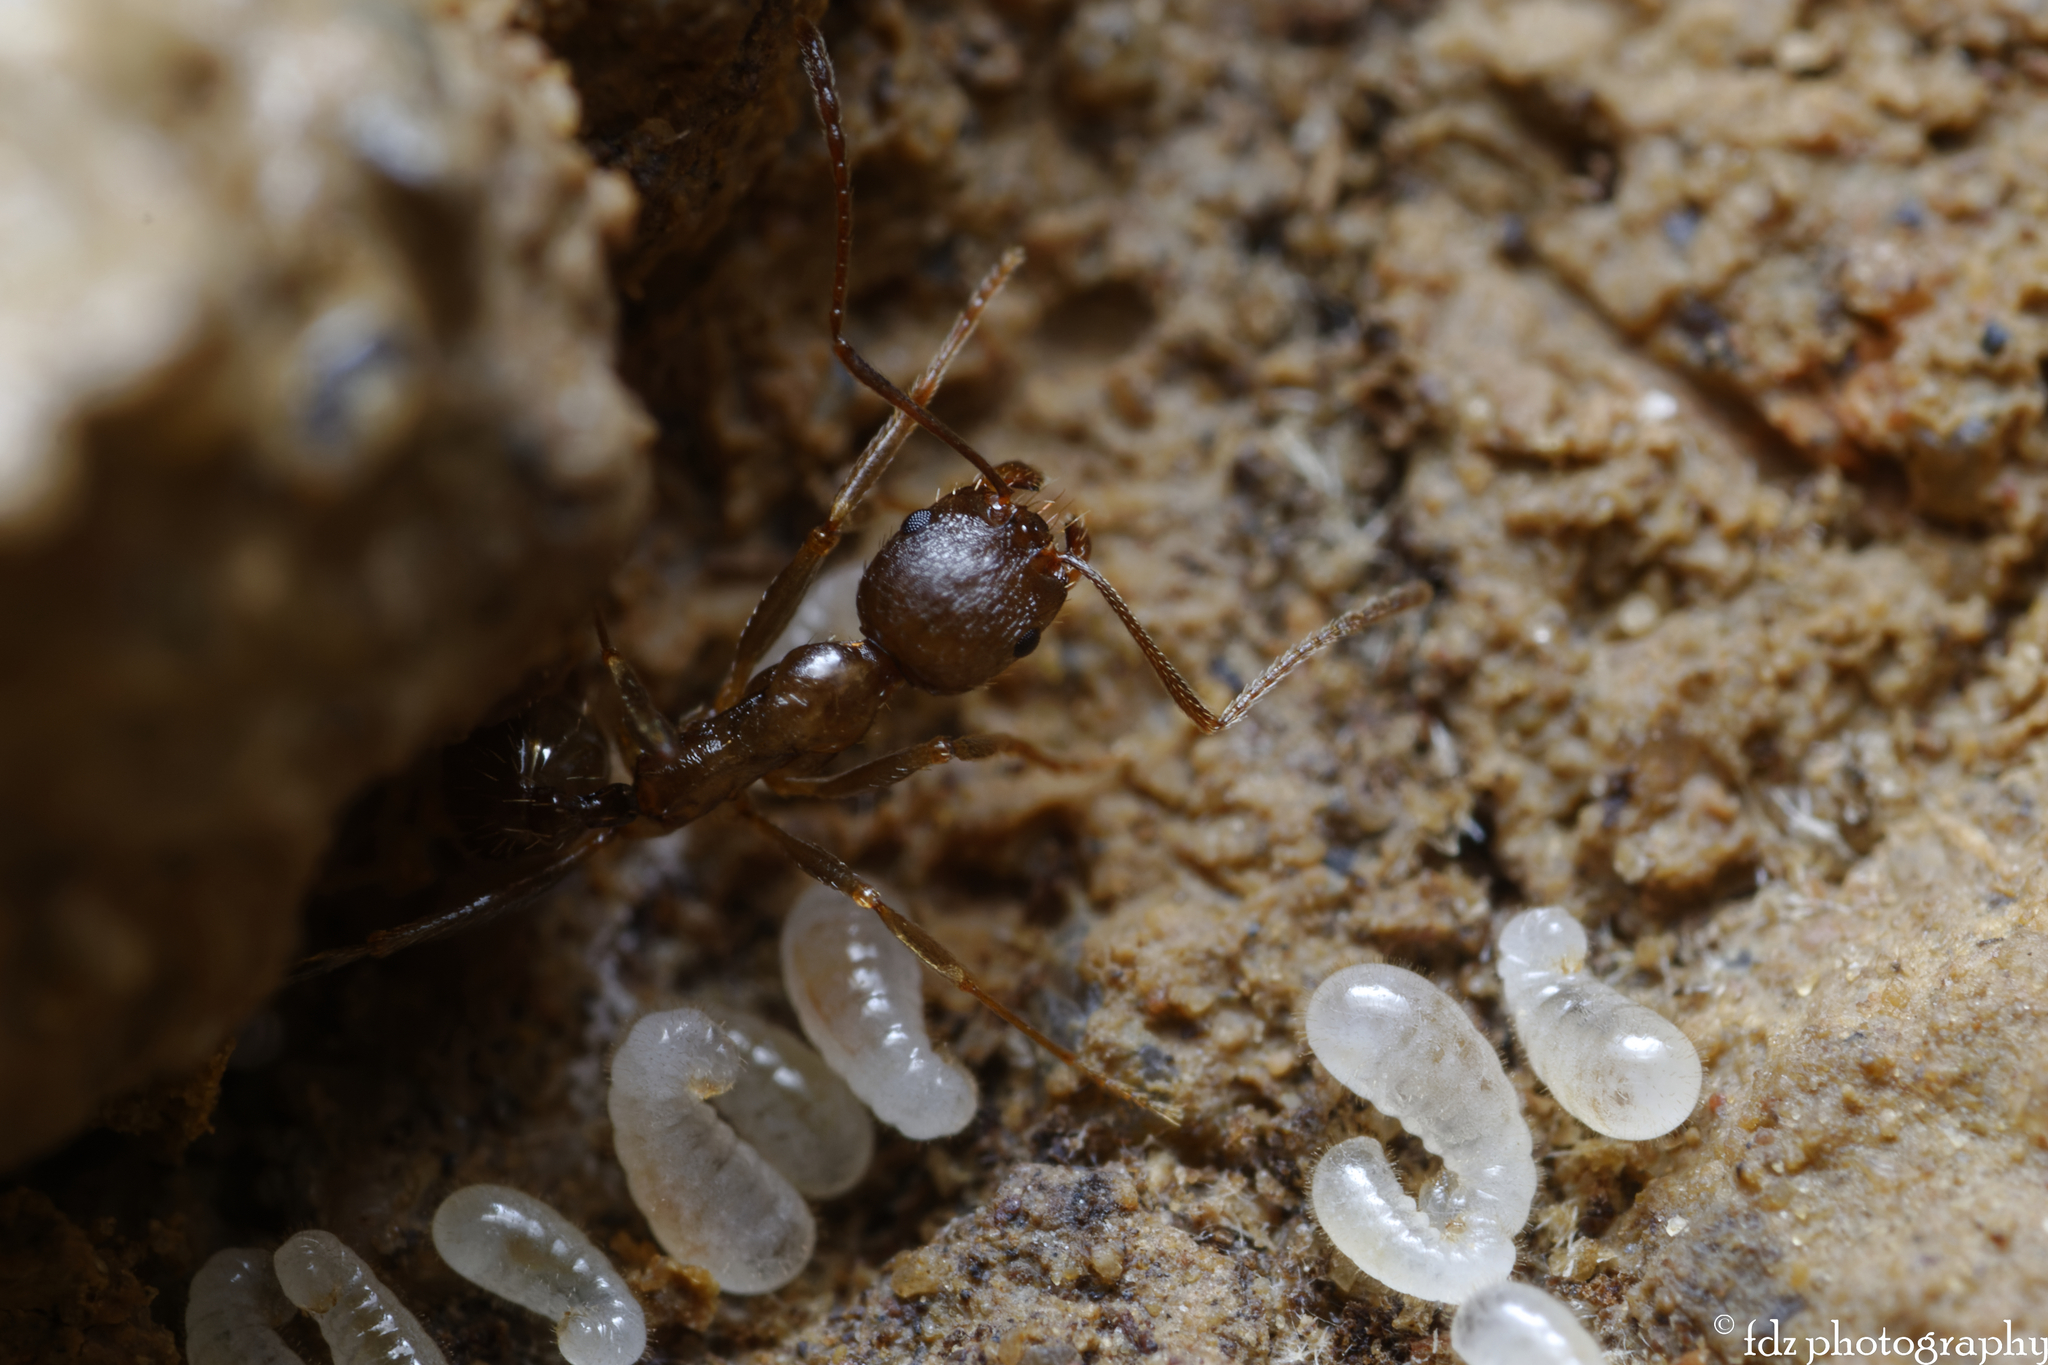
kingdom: Animalia
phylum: Arthropoda
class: Insecta
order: Hymenoptera
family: Formicidae
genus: Aphaenogaster
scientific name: Aphaenogaster gibbosa
